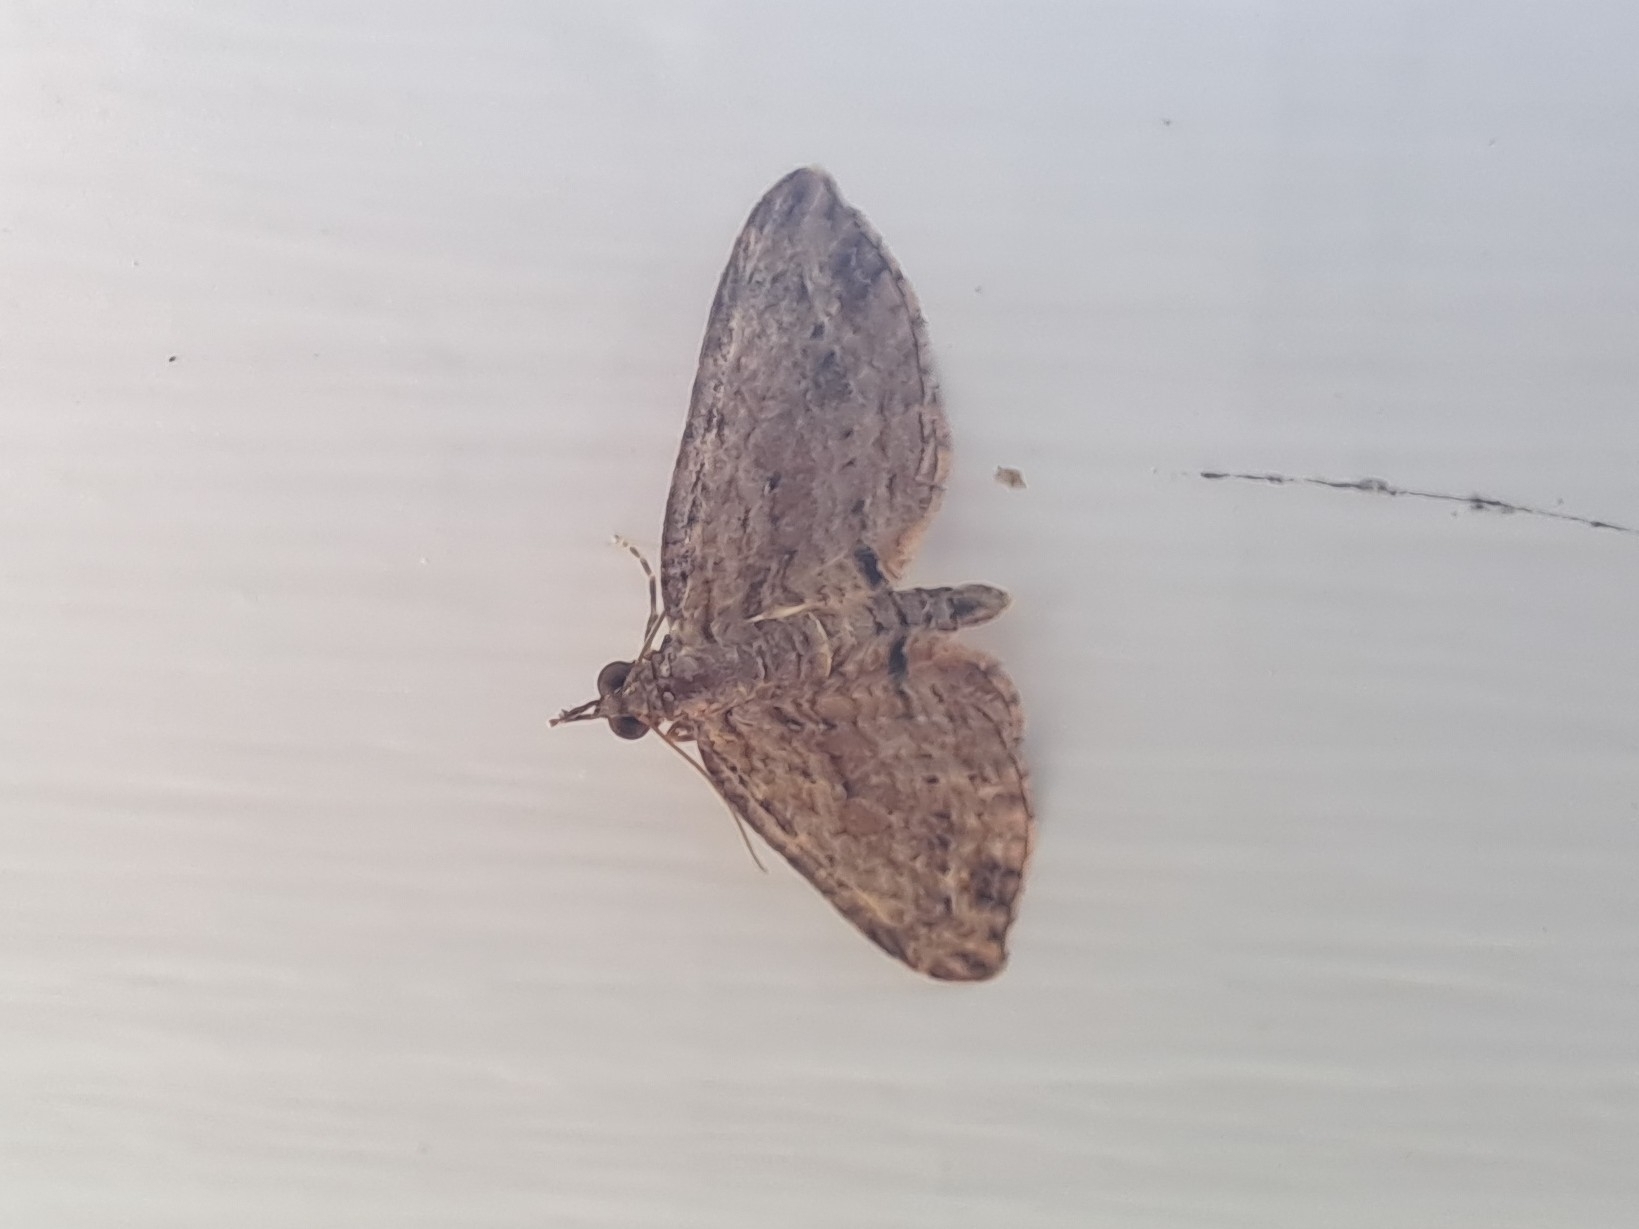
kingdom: Animalia
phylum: Arthropoda
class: Insecta
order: Lepidoptera
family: Geometridae
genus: Chloroclystis
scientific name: Chloroclystis filata
